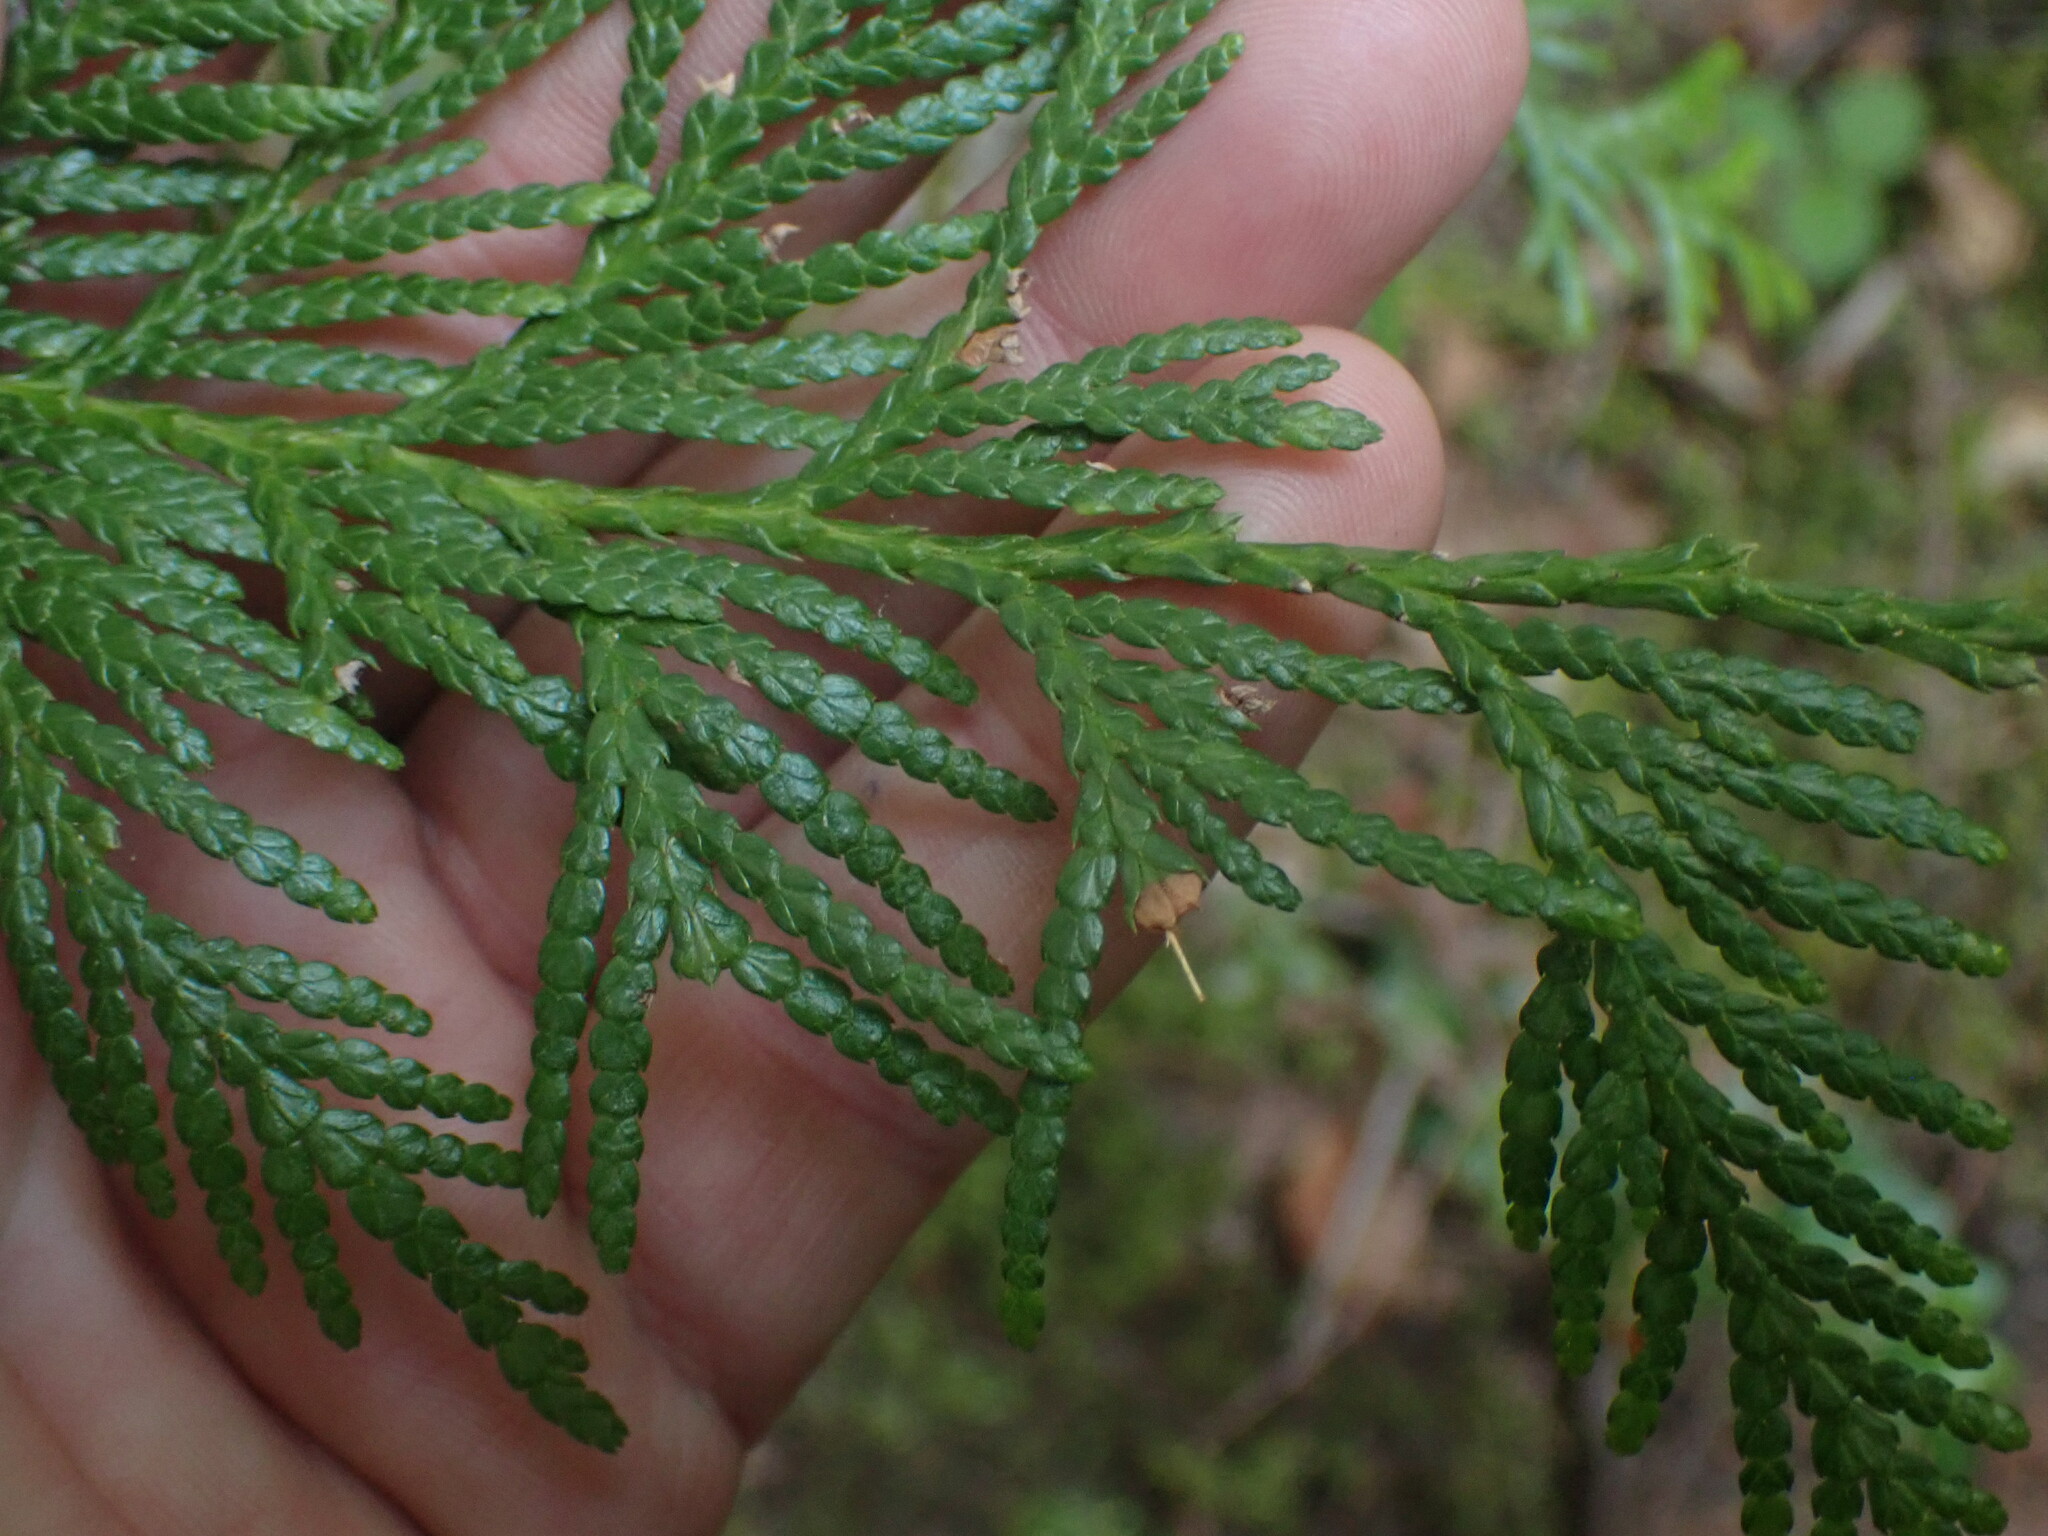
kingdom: Plantae
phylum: Tracheophyta
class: Pinopsida
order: Pinales
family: Cupressaceae
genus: Thuja
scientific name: Thuja plicata
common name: Western red-cedar
